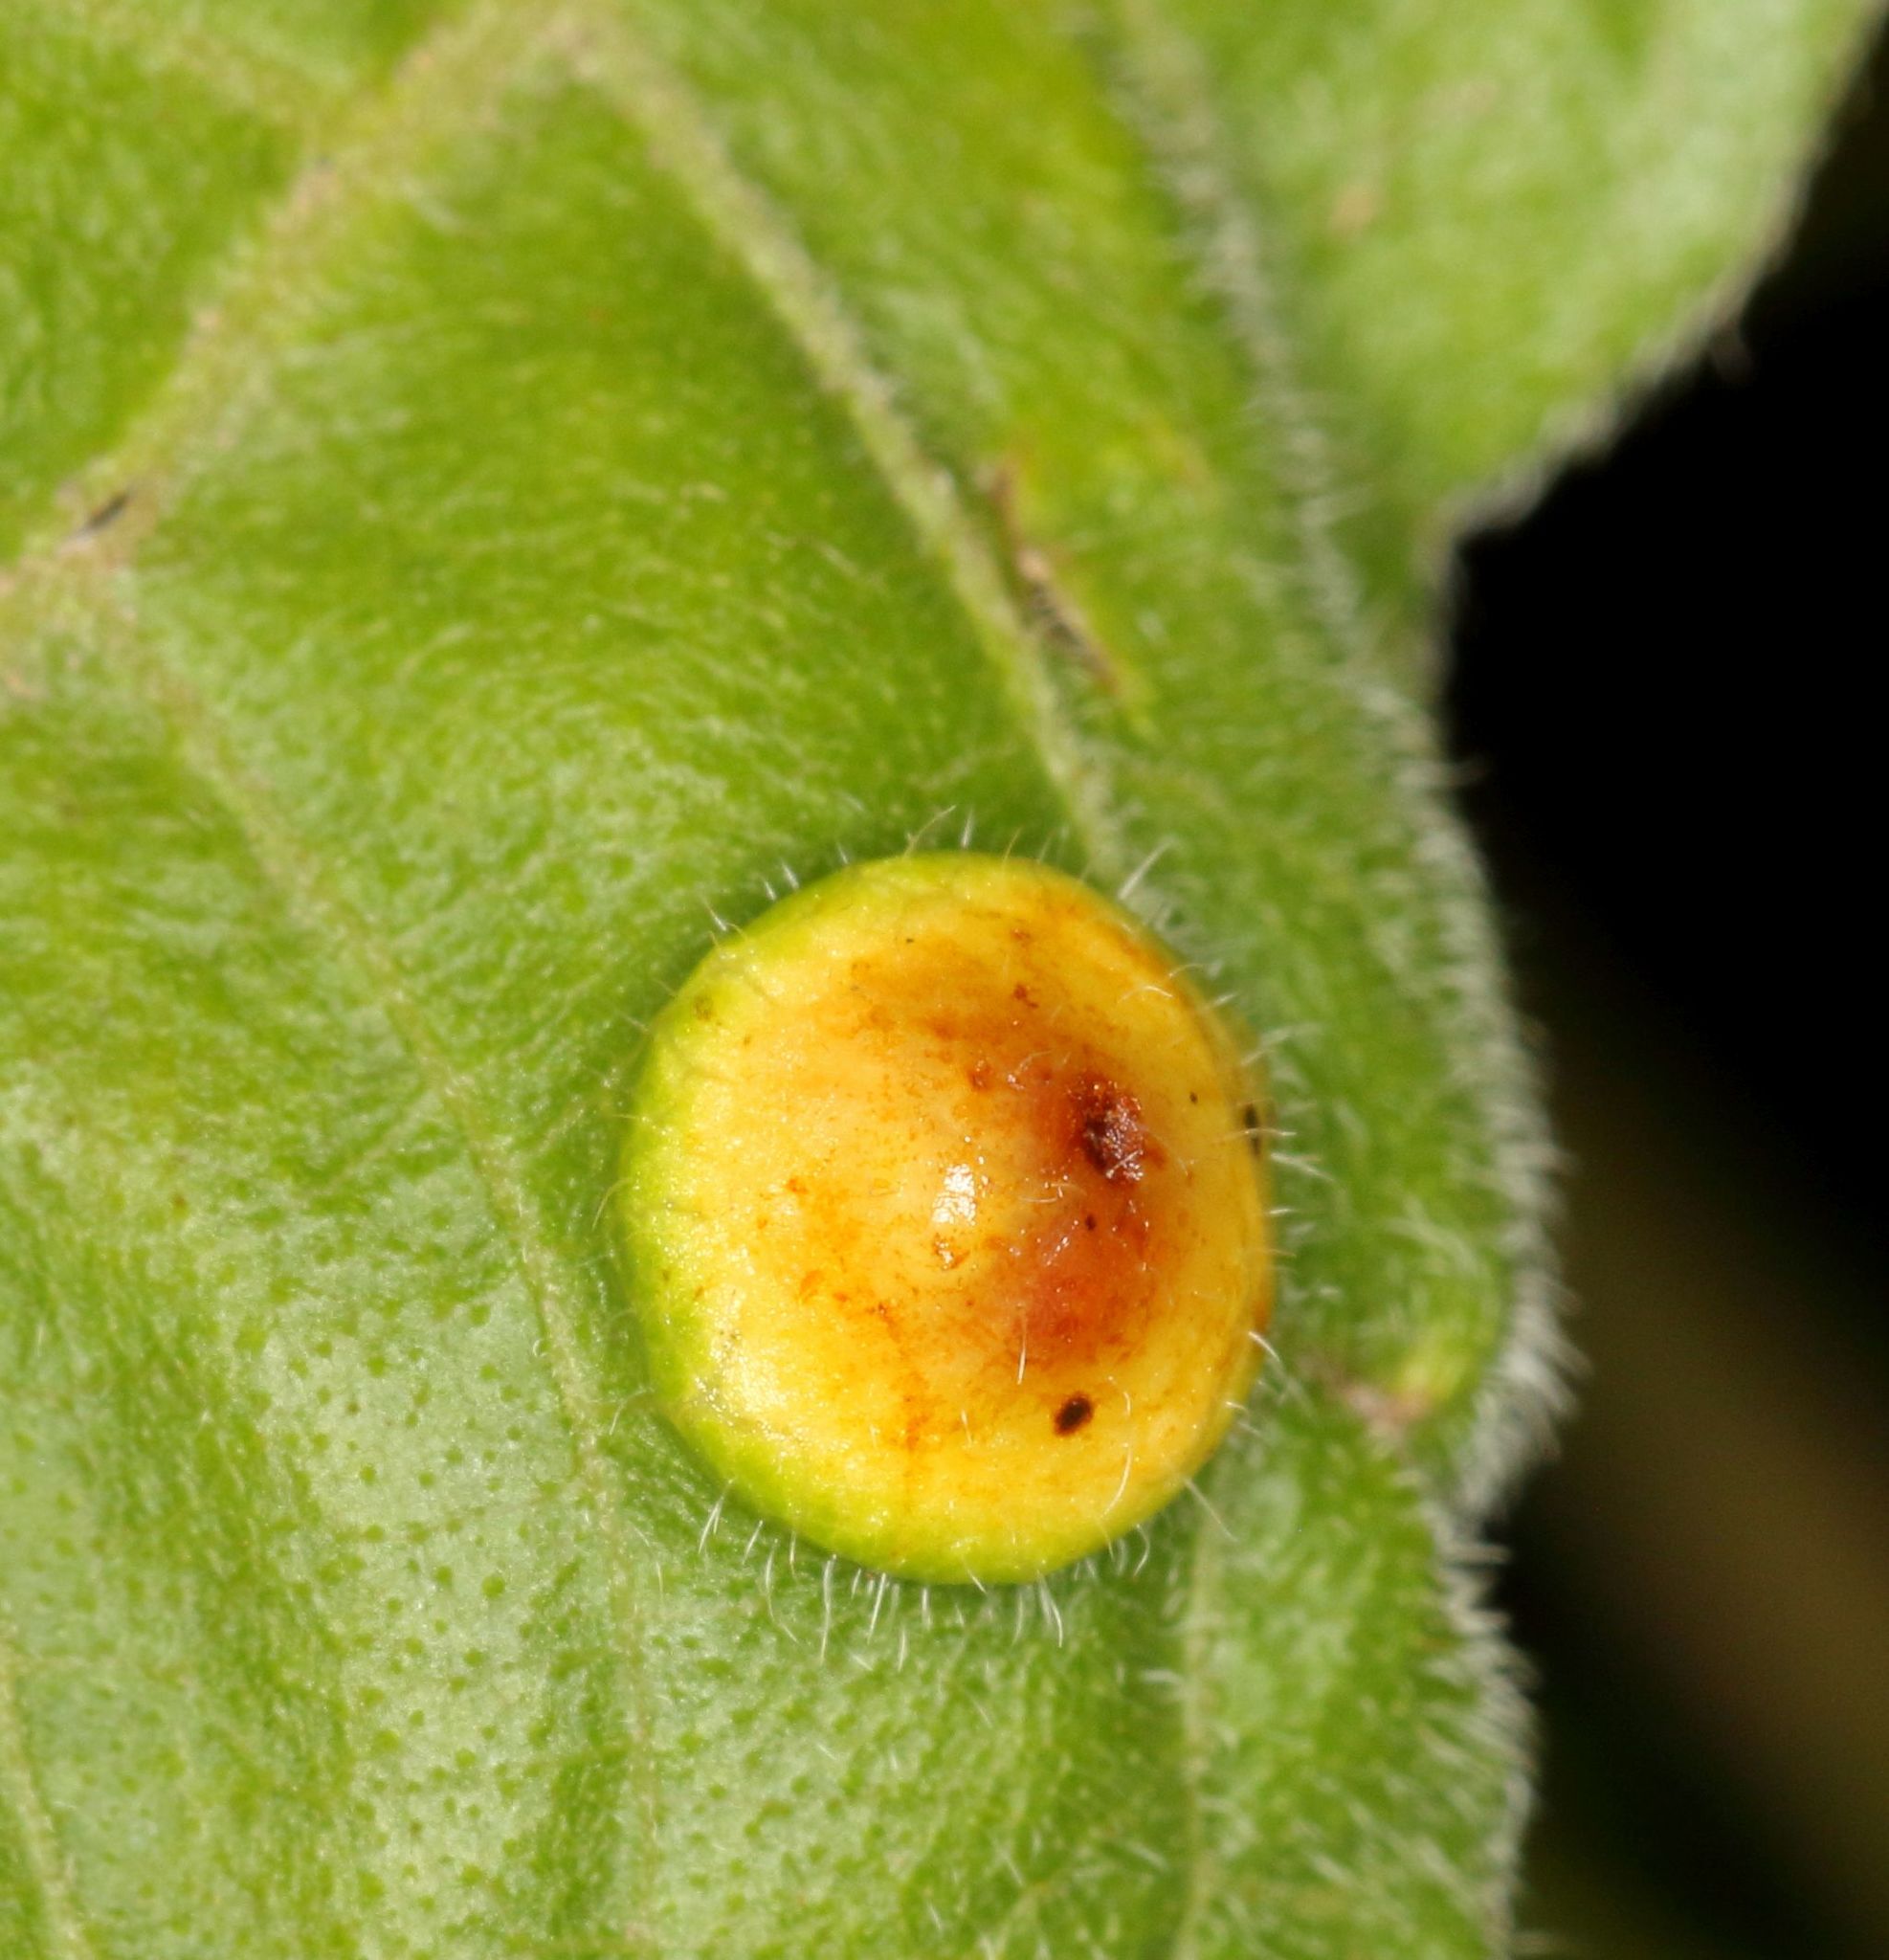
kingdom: Plantae
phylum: Tracheophyta
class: Magnoliopsida
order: Sapindales
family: Anacardiaceae
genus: Searsia
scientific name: Searsia dentata
